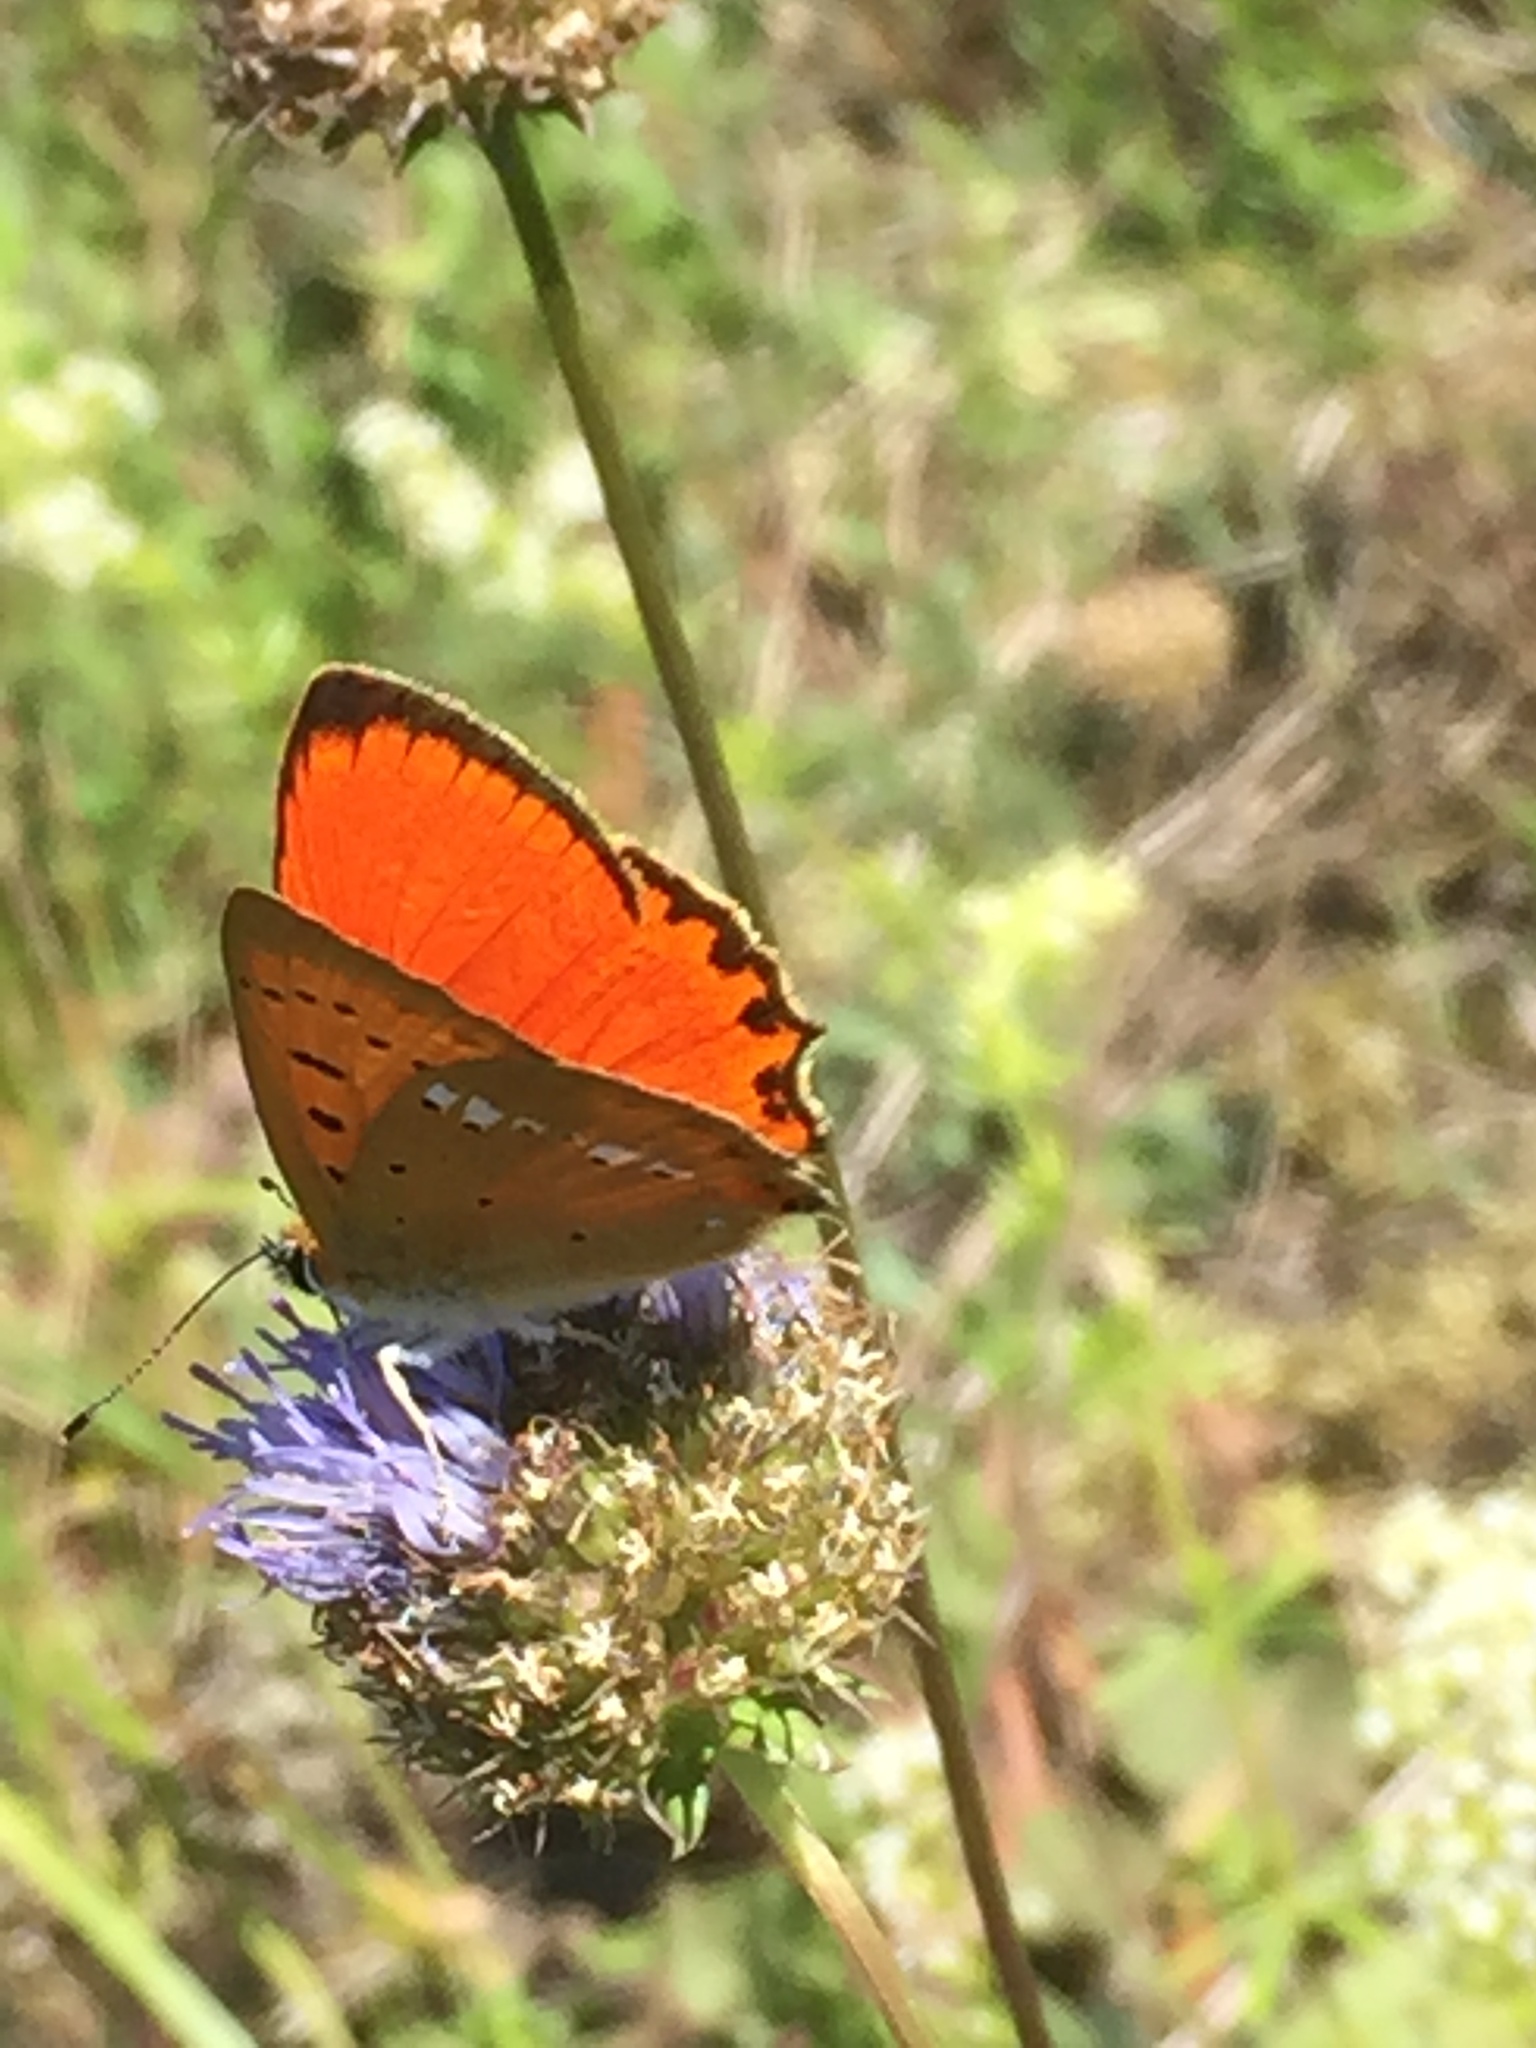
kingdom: Animalia
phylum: Arthropoda
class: Insecta
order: Lepidoptera
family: Lycaenidae
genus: Lycaena
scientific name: Lycaena virgaureae
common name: Scarce copper
